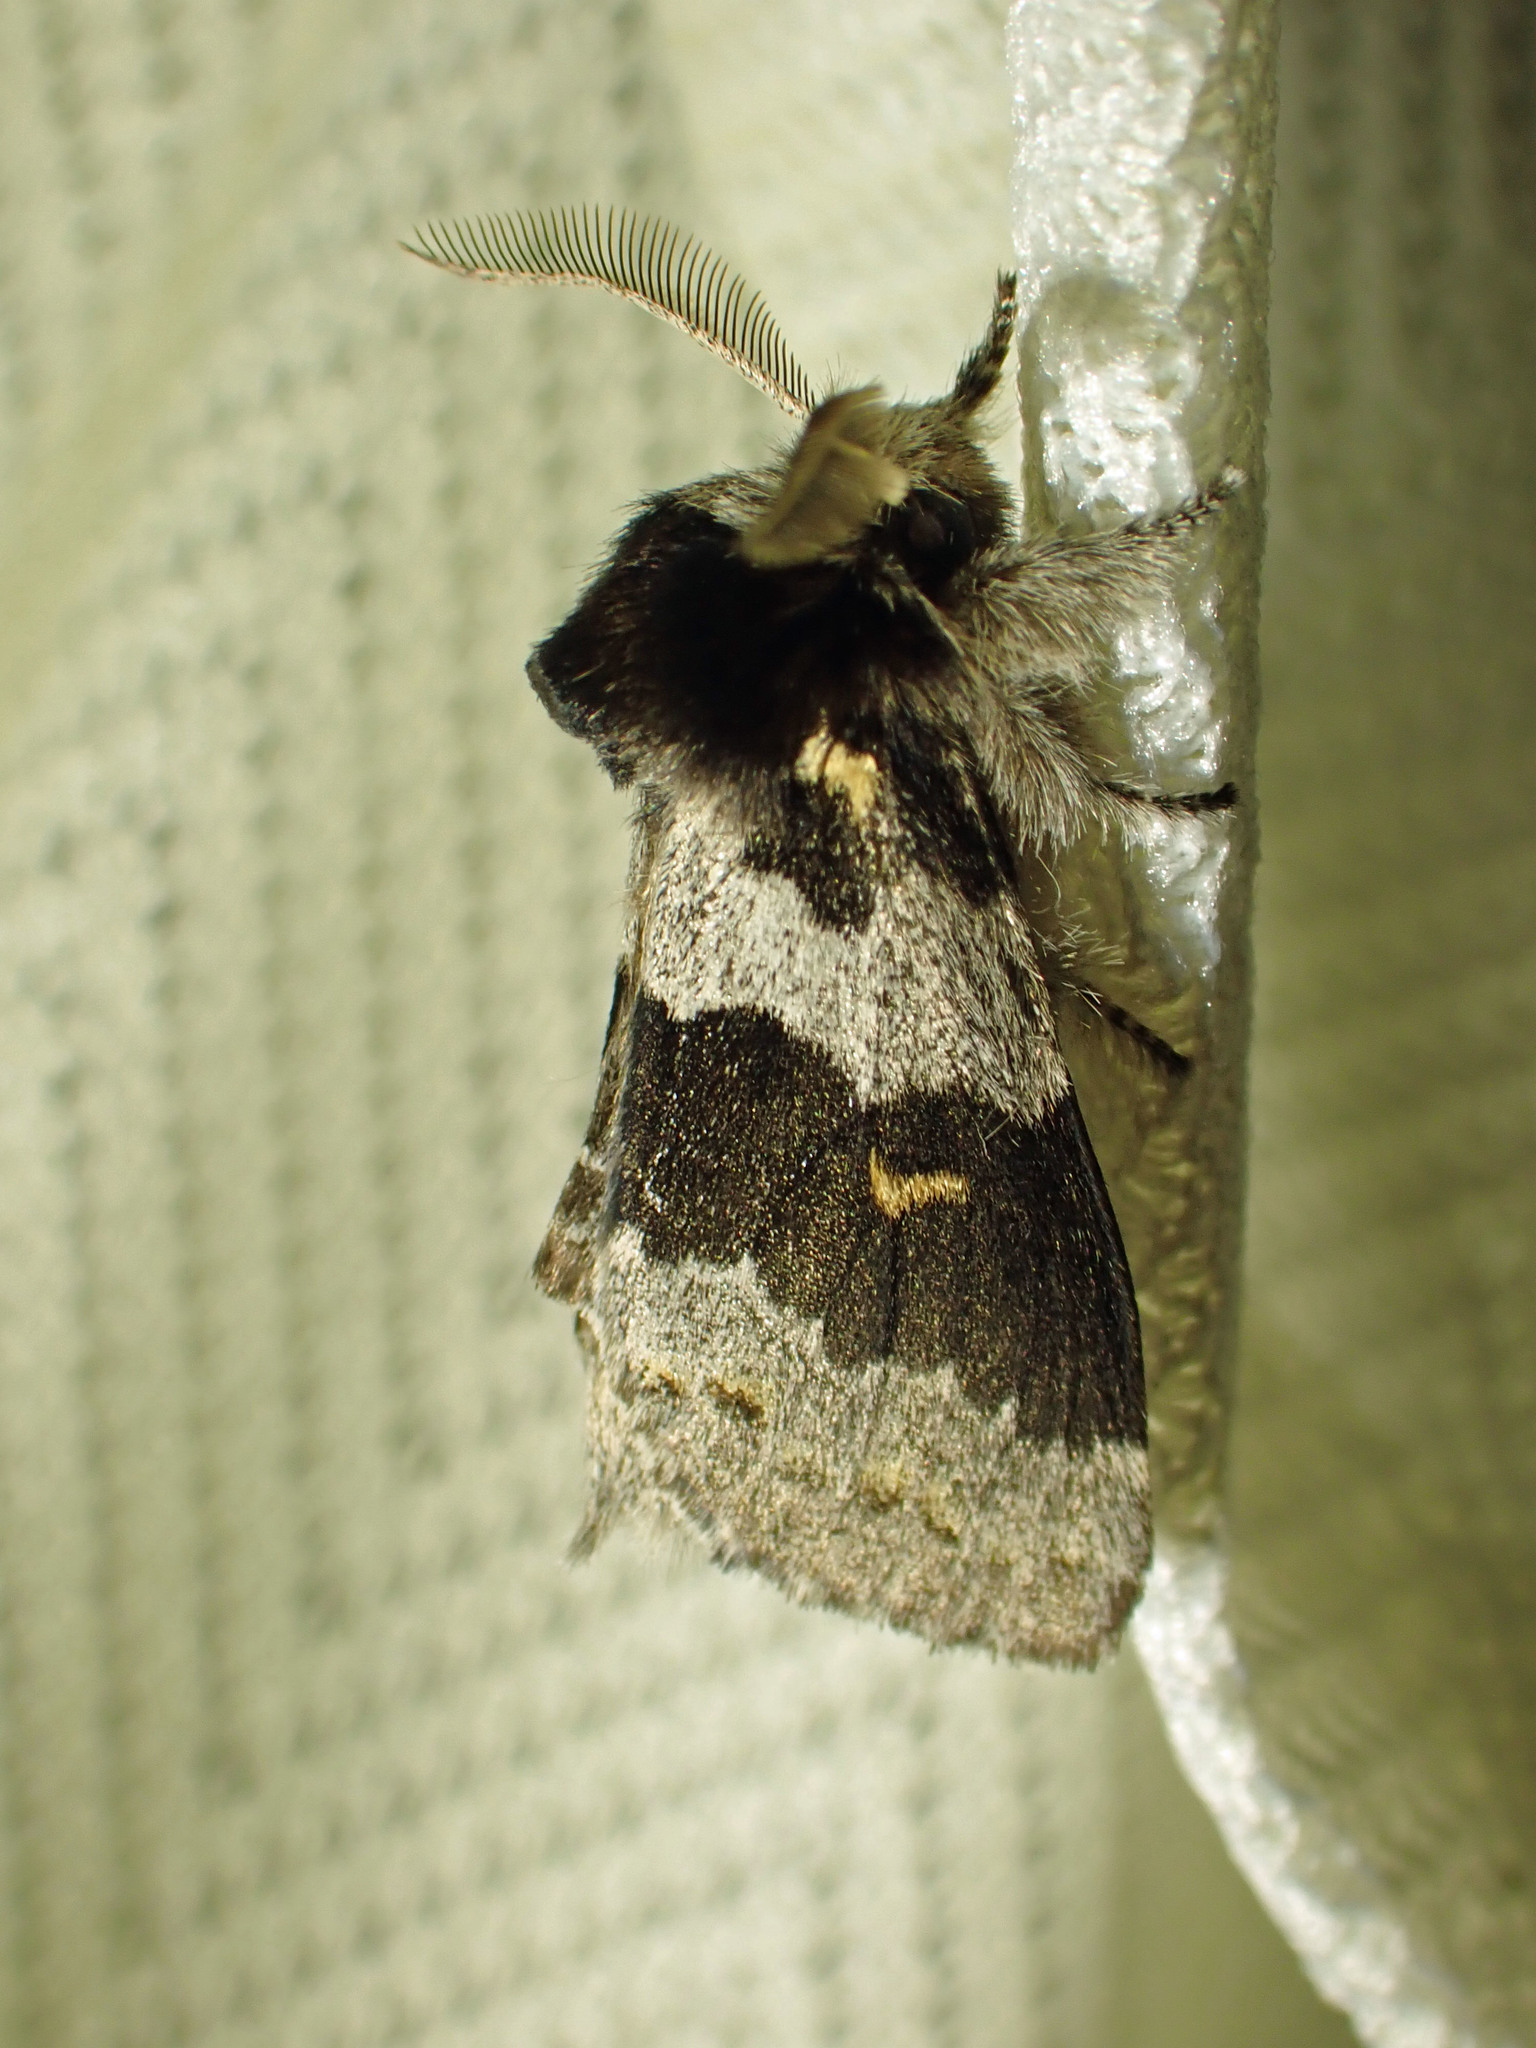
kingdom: Animalia
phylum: Arthropoda
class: Insecta
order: Lepidoptera
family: Notodontidae
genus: Gluphisia
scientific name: Gluphisia avimacula
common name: Four-spotted gluphisia moth
